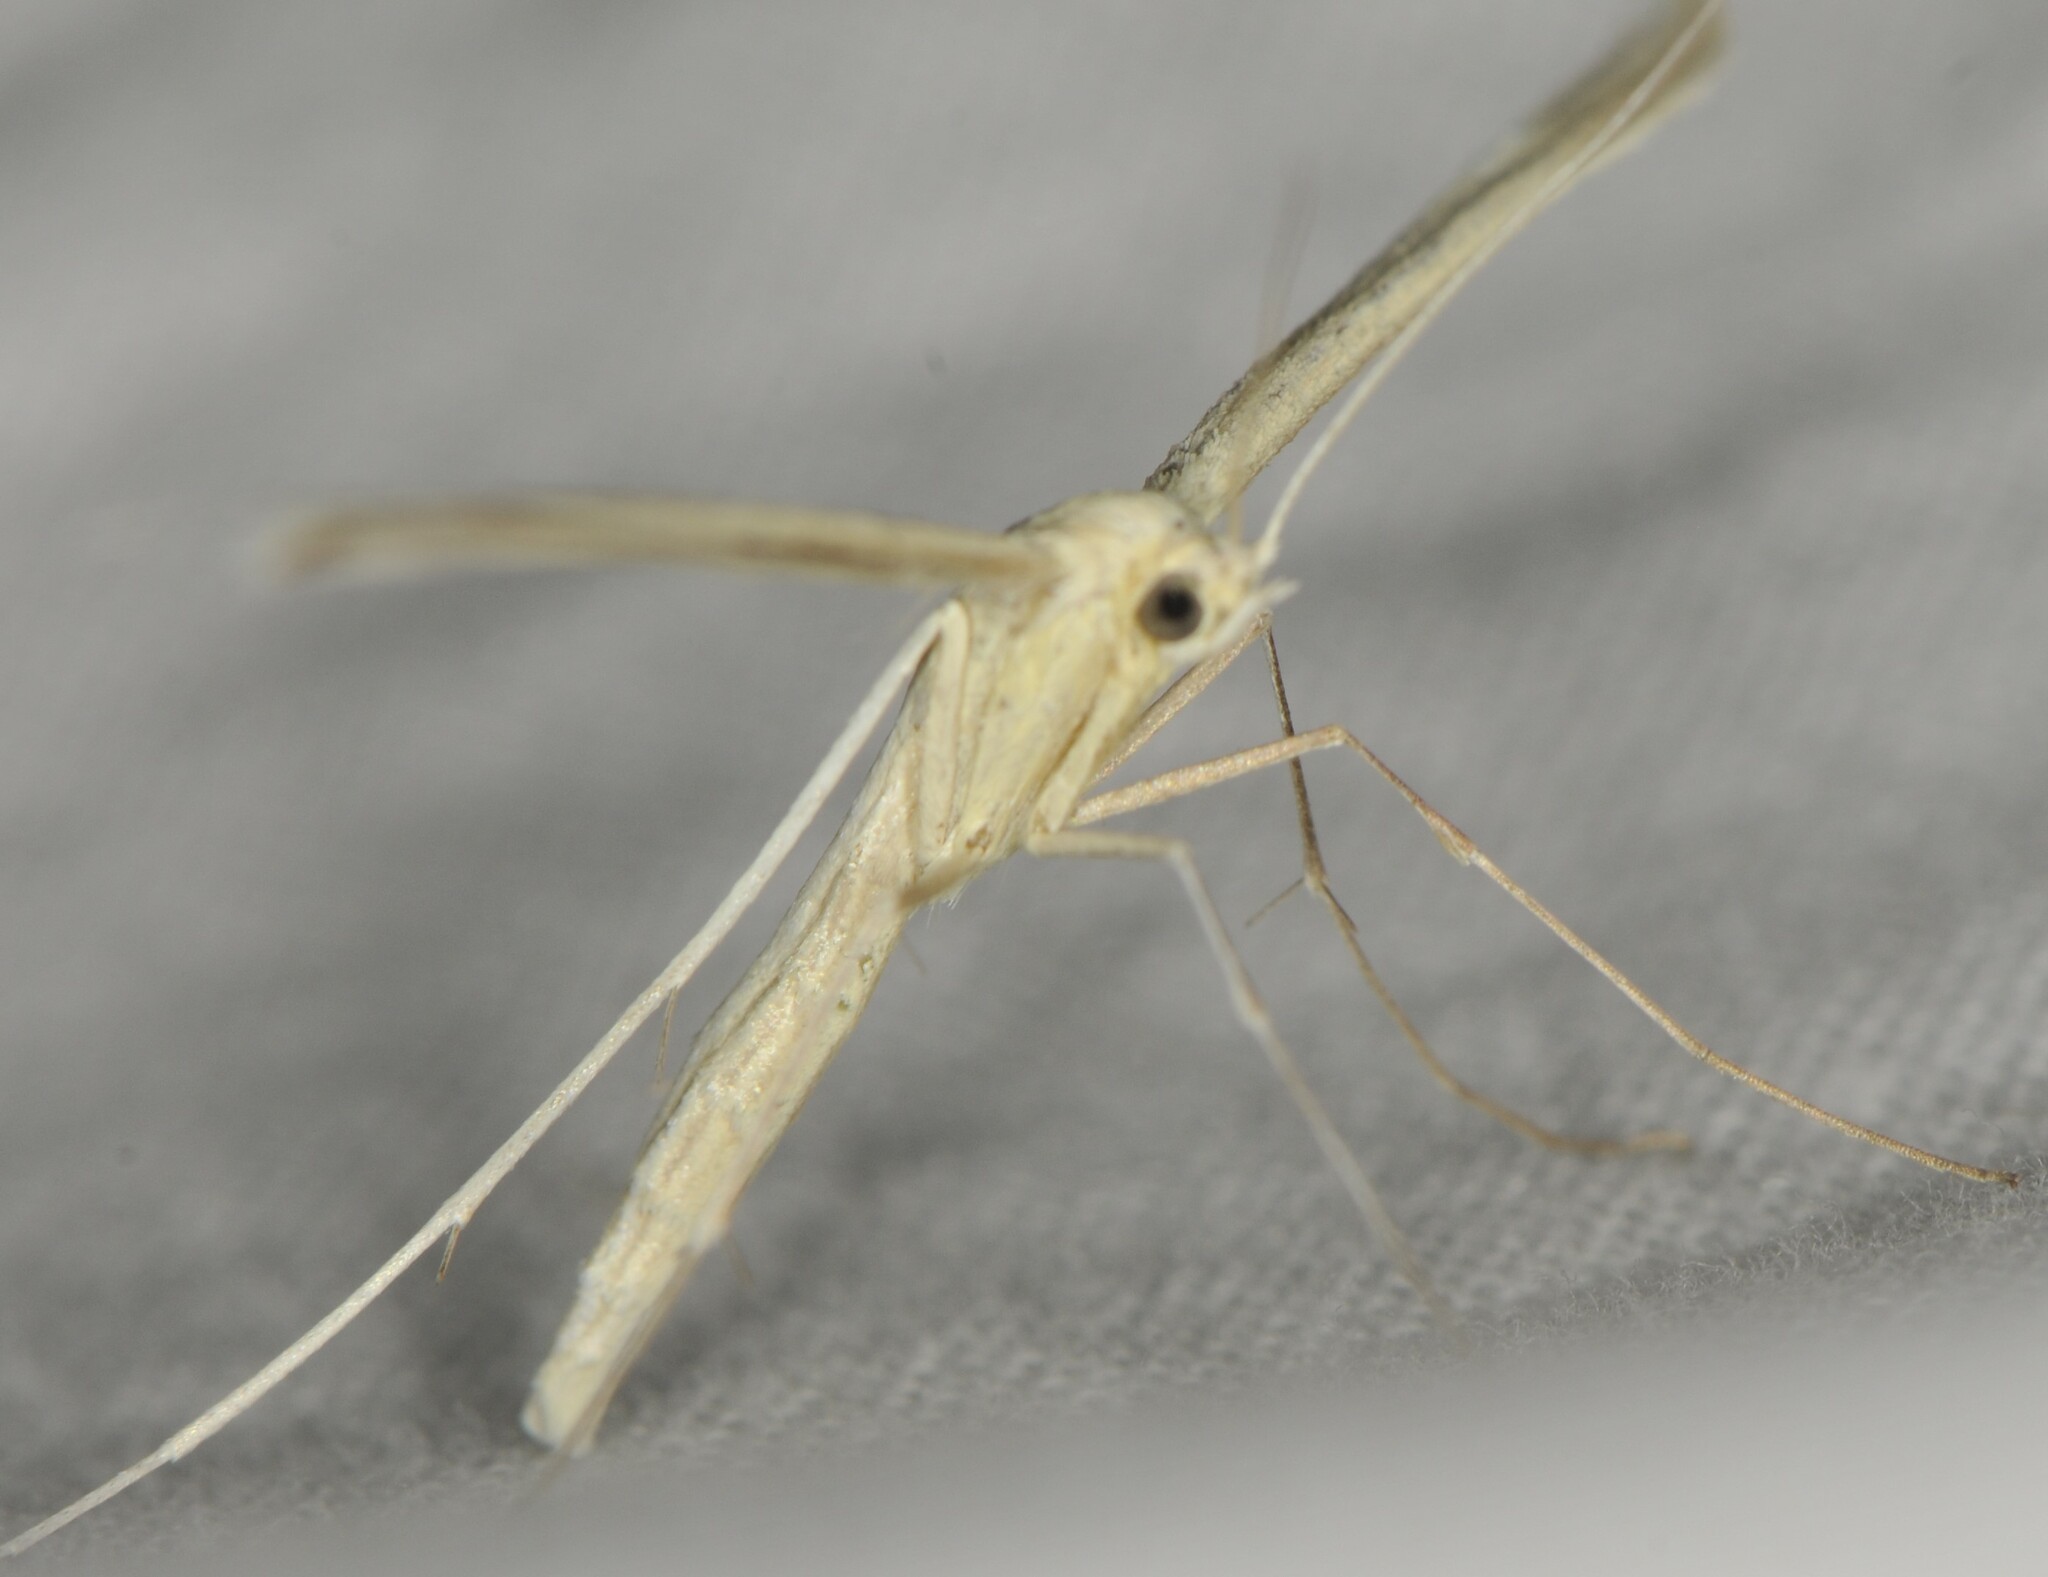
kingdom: Animalia
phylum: Arthropoda
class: Insecta
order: Lepidoptera
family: Pterophoridae
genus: Hellinsia
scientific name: Hellinsia
